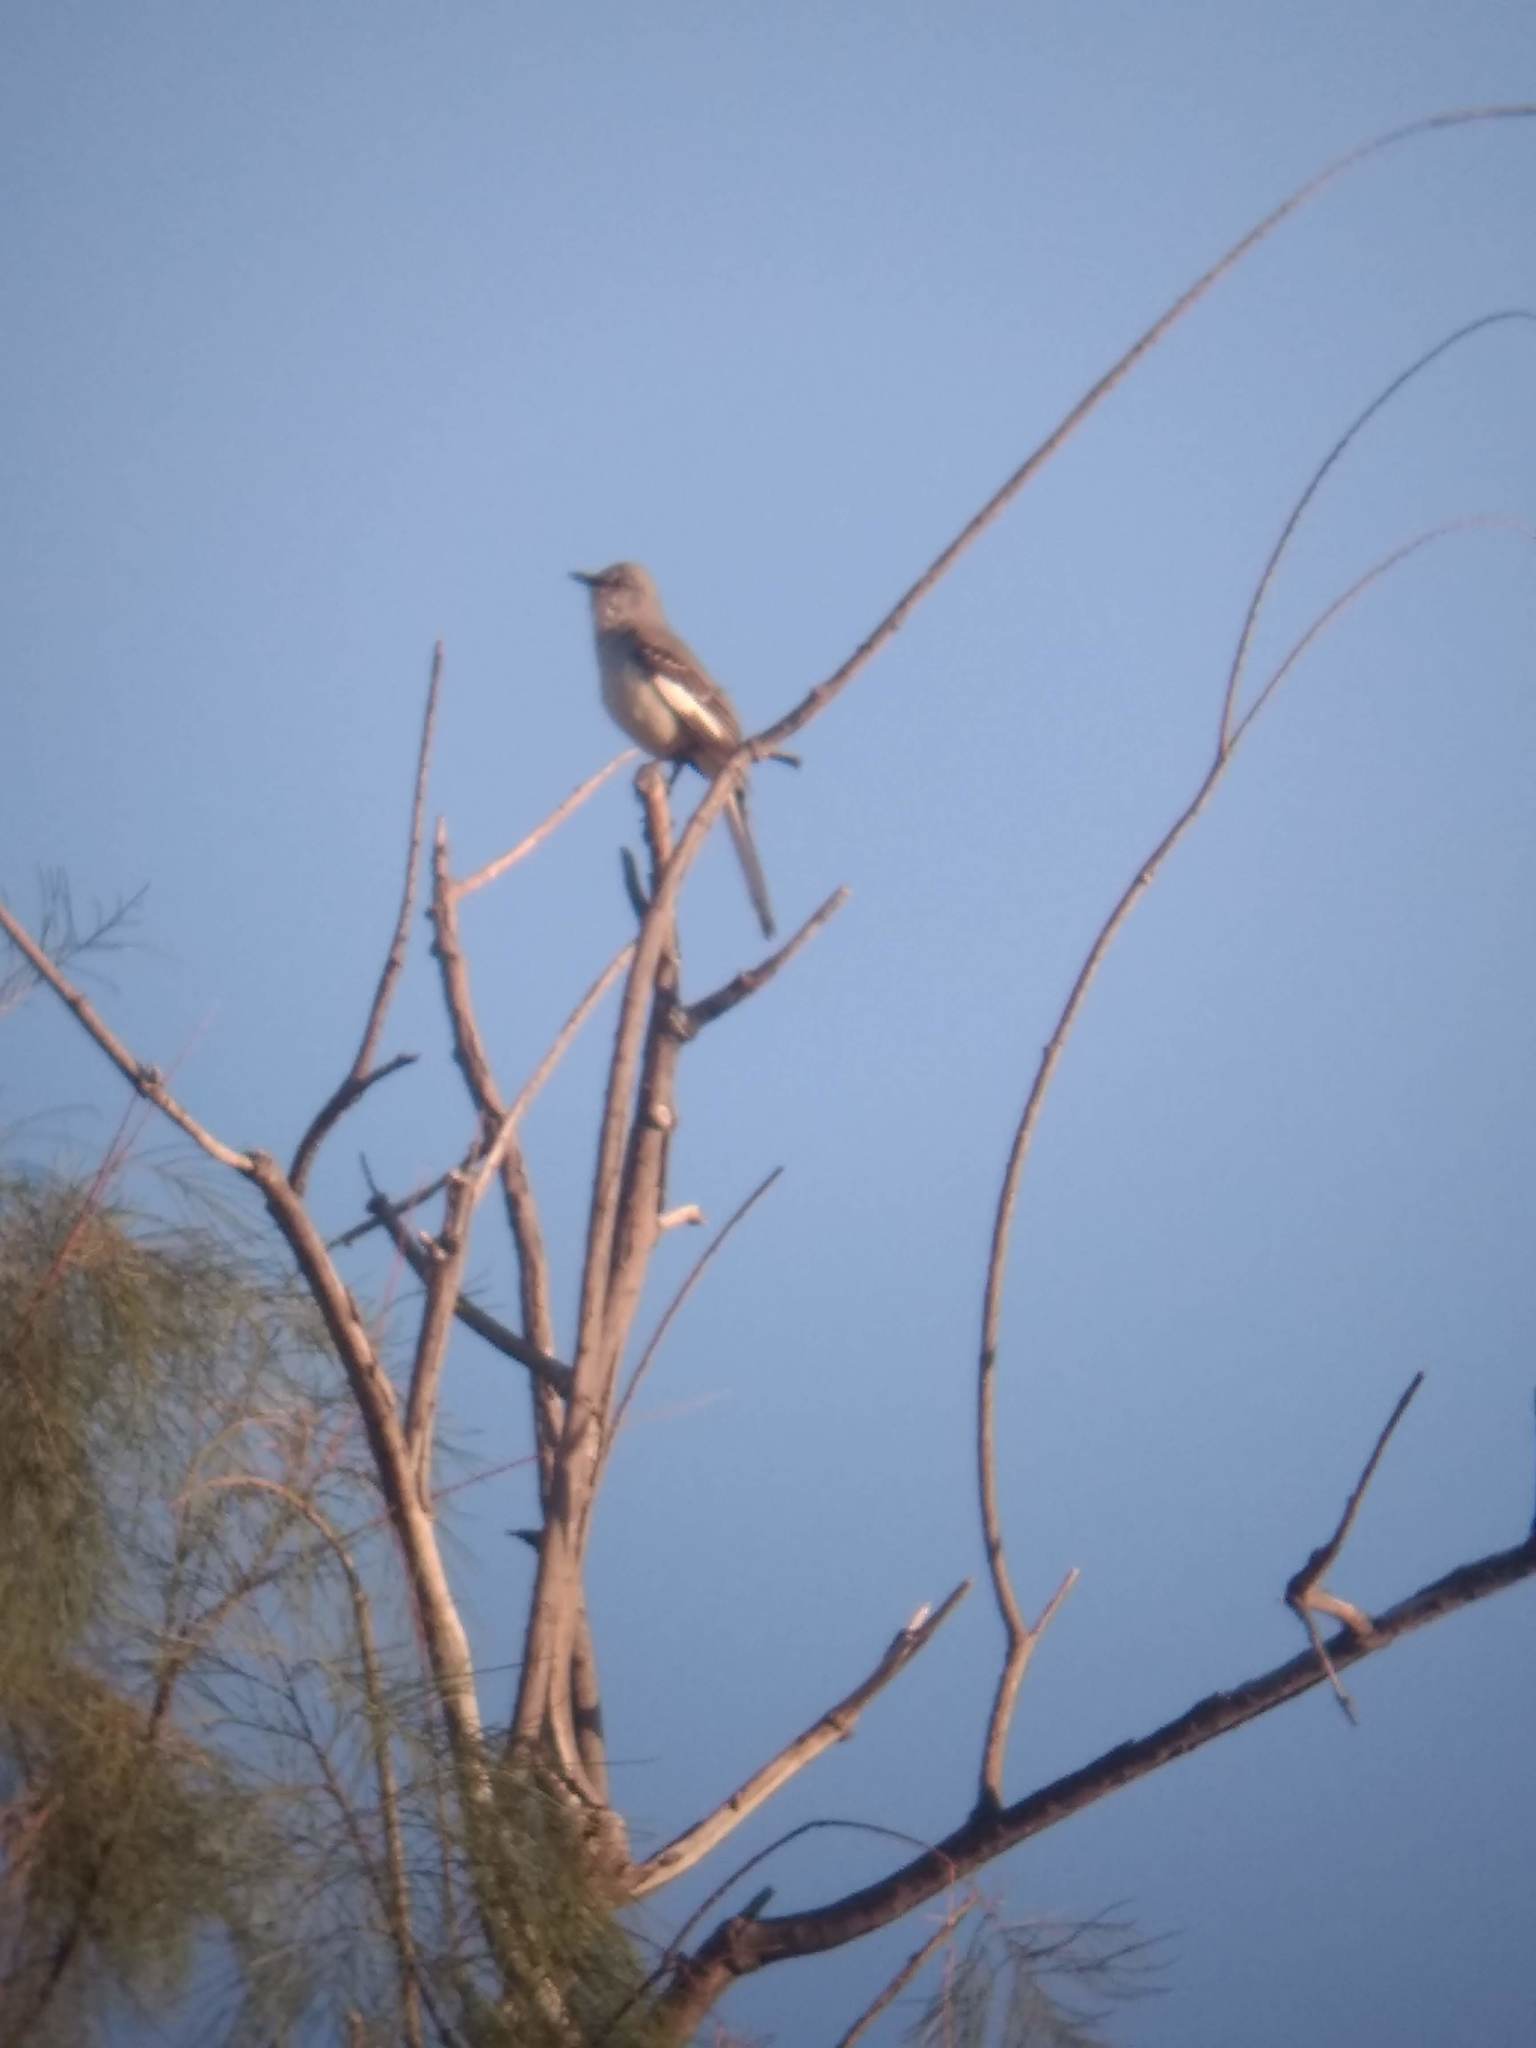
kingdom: Animalia
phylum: Chordata
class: Aves
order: Passeriformes
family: Mimidae
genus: Mimus
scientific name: Mimus polyglottos
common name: Northern mockingbird
